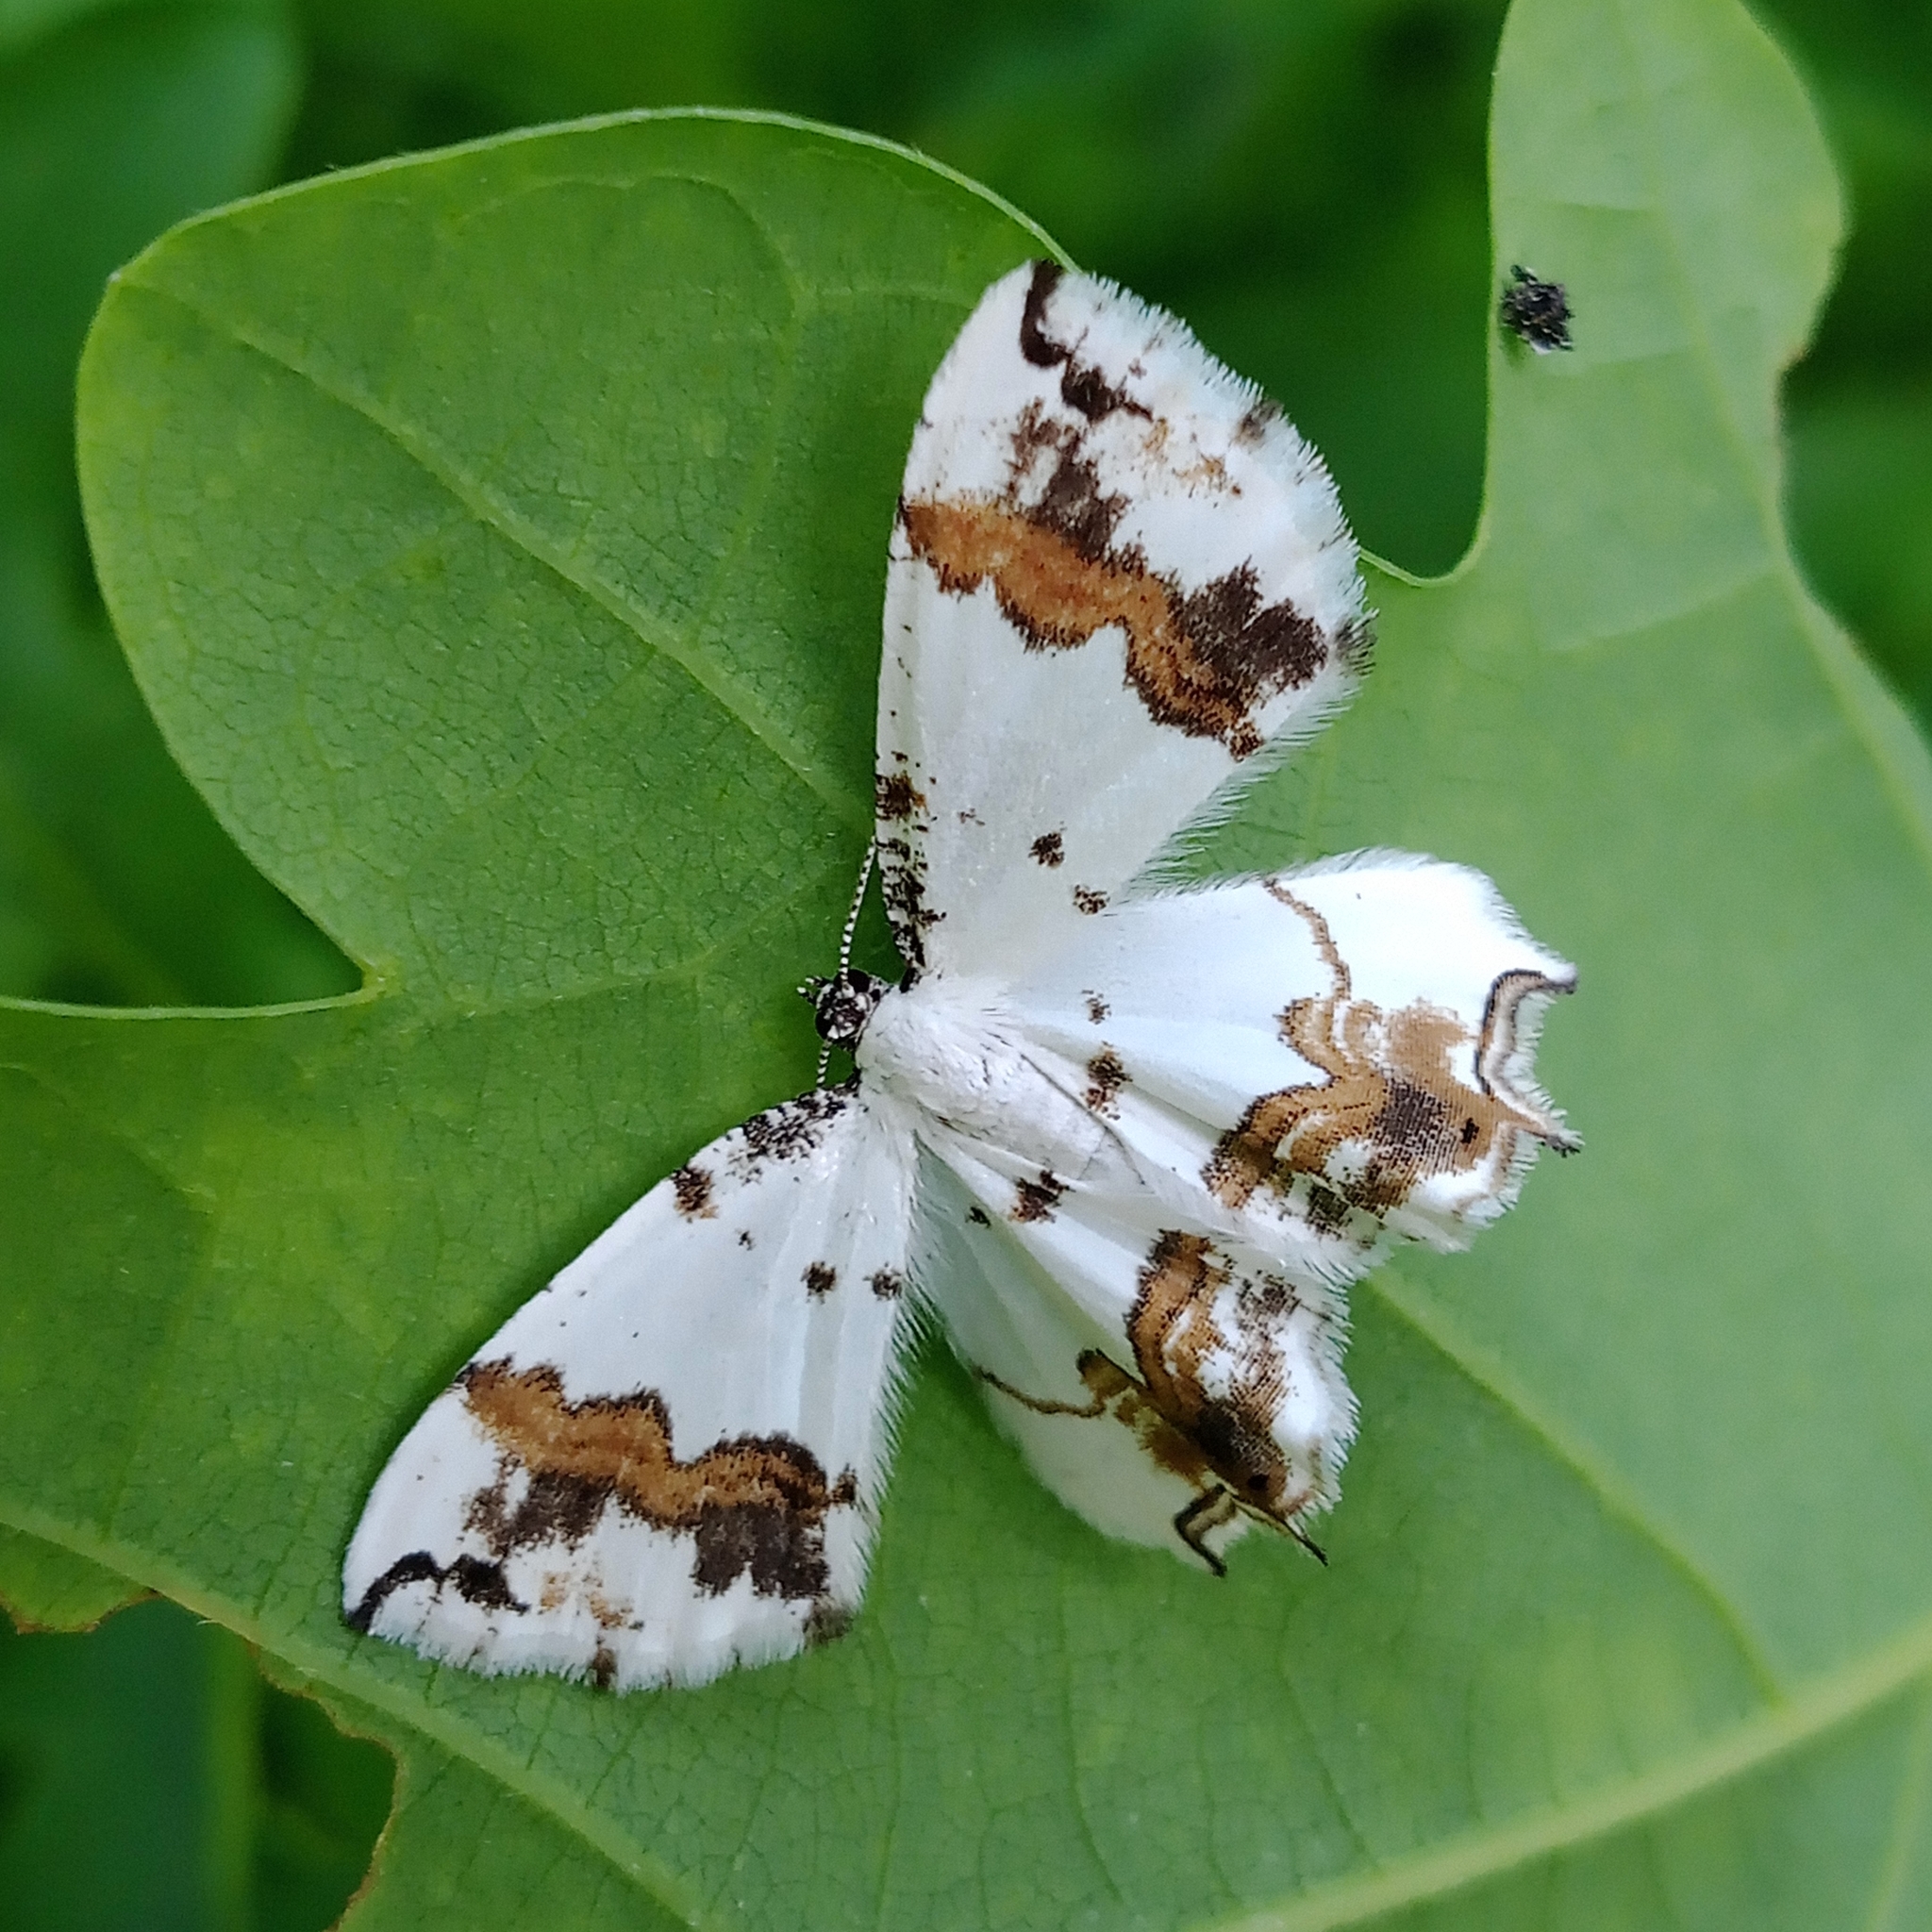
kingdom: Animalia
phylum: Arthropoda
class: Insecta
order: Lepidoptera
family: Uraniidae
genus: Epiplema
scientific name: Epiplema Eversmannia exornata
